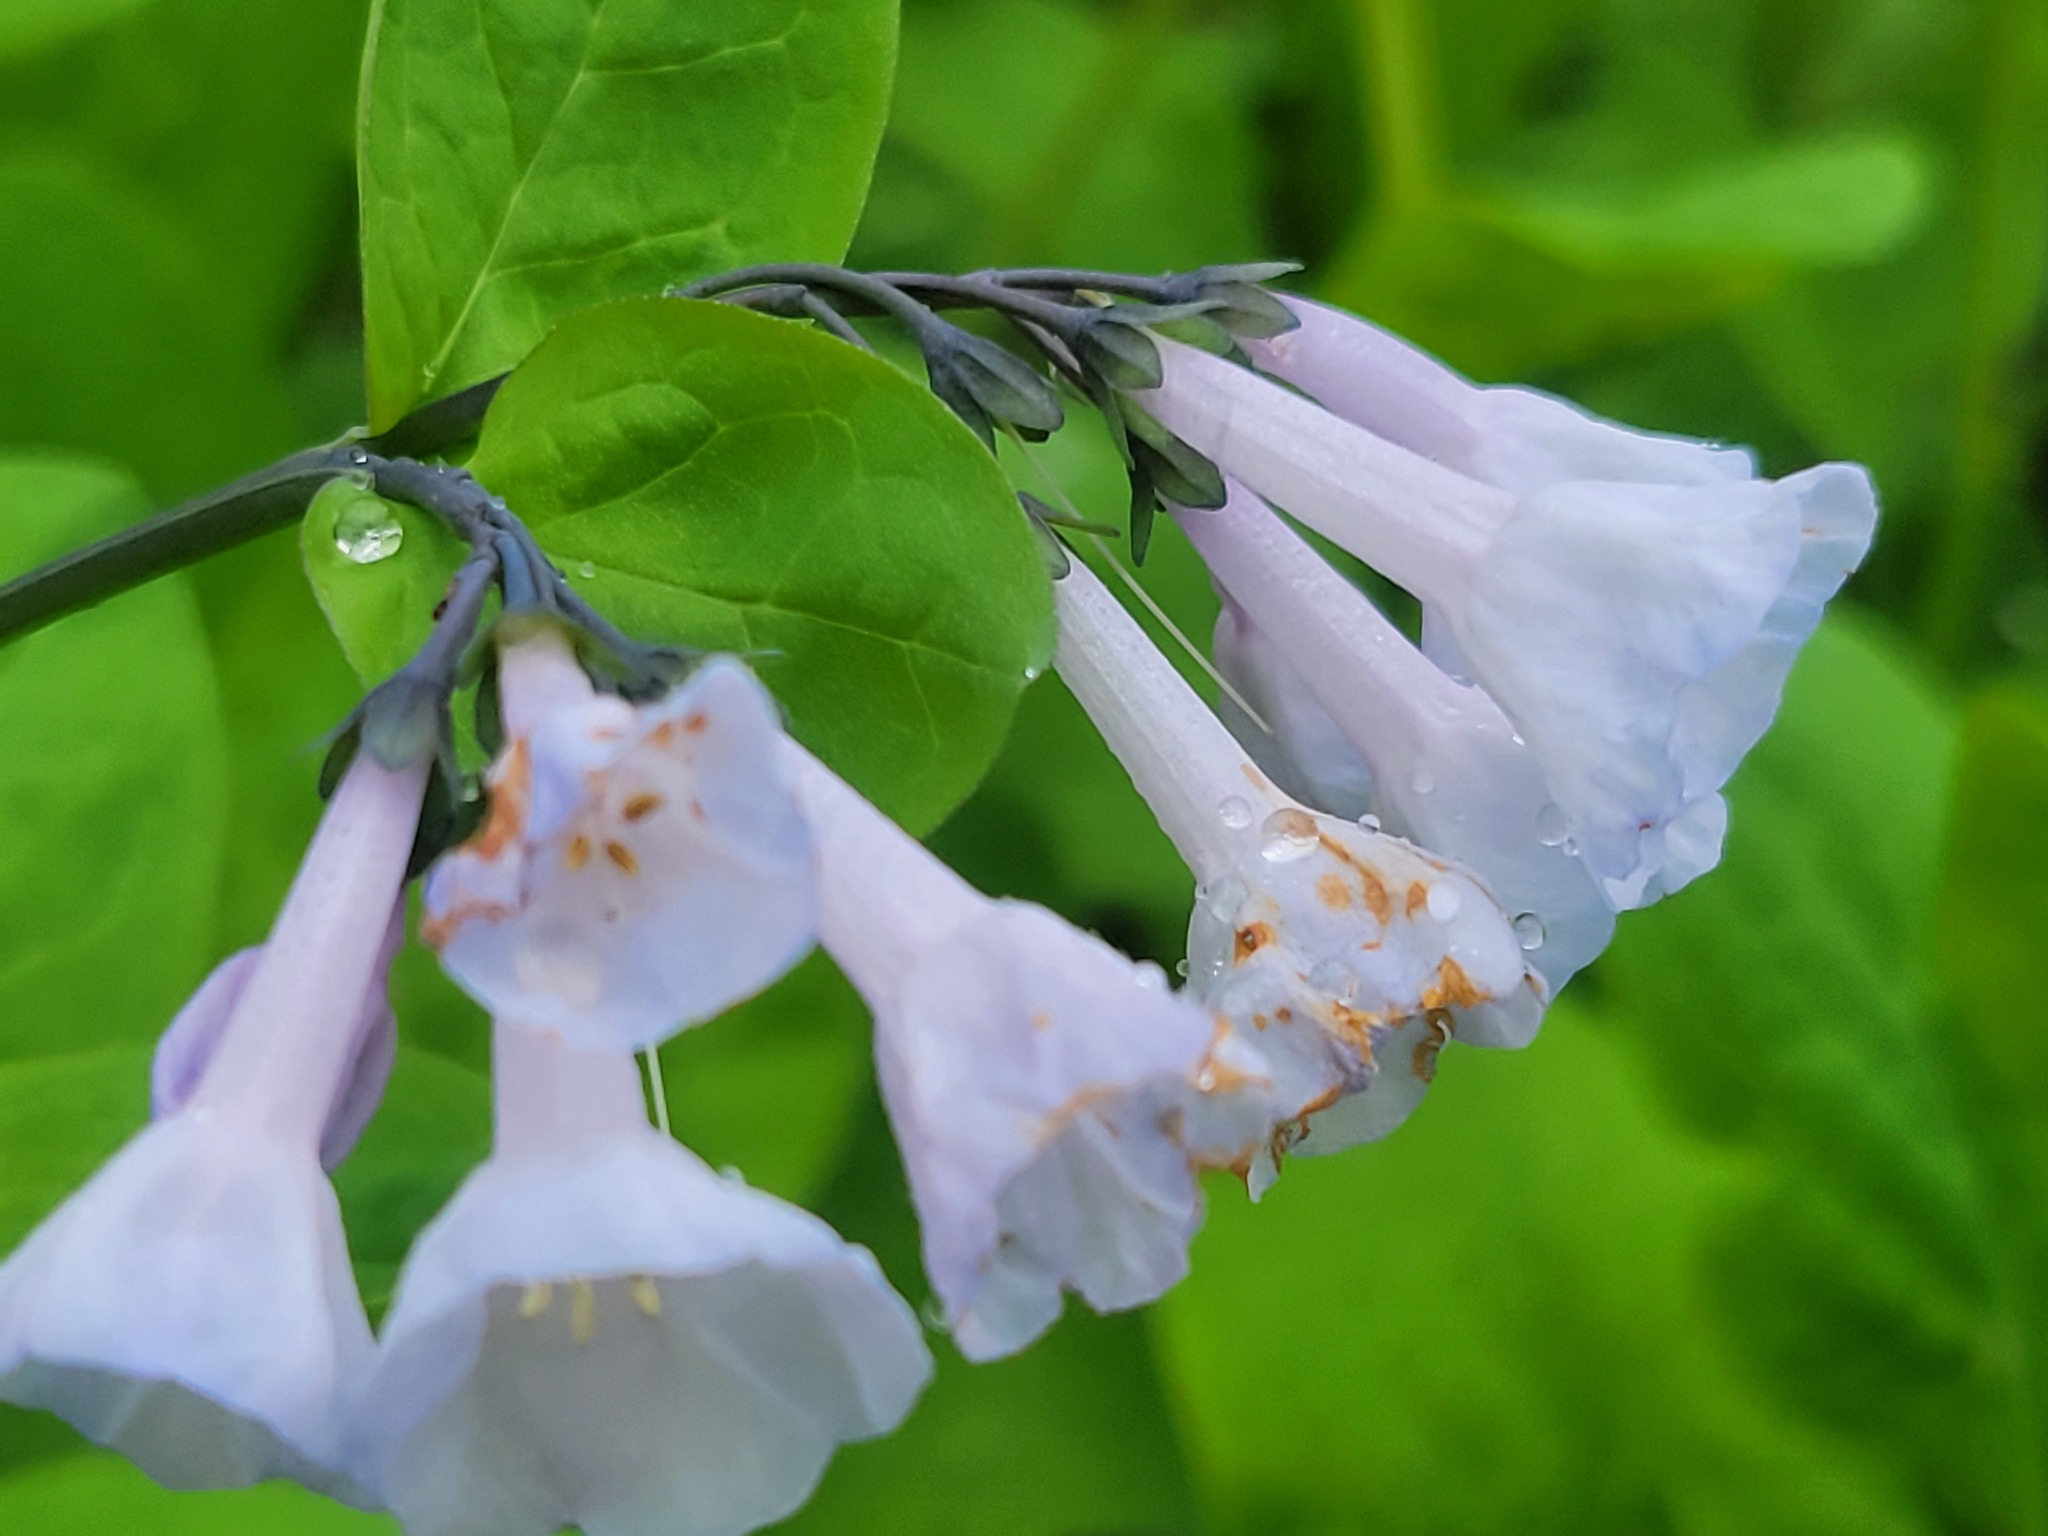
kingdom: Plantae
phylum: Tracheophyta
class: Magnoliopsida
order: Boraginales
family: Boraginaceae
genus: Mertensia
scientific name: Mertensia virginica
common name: Virginia bluebells
